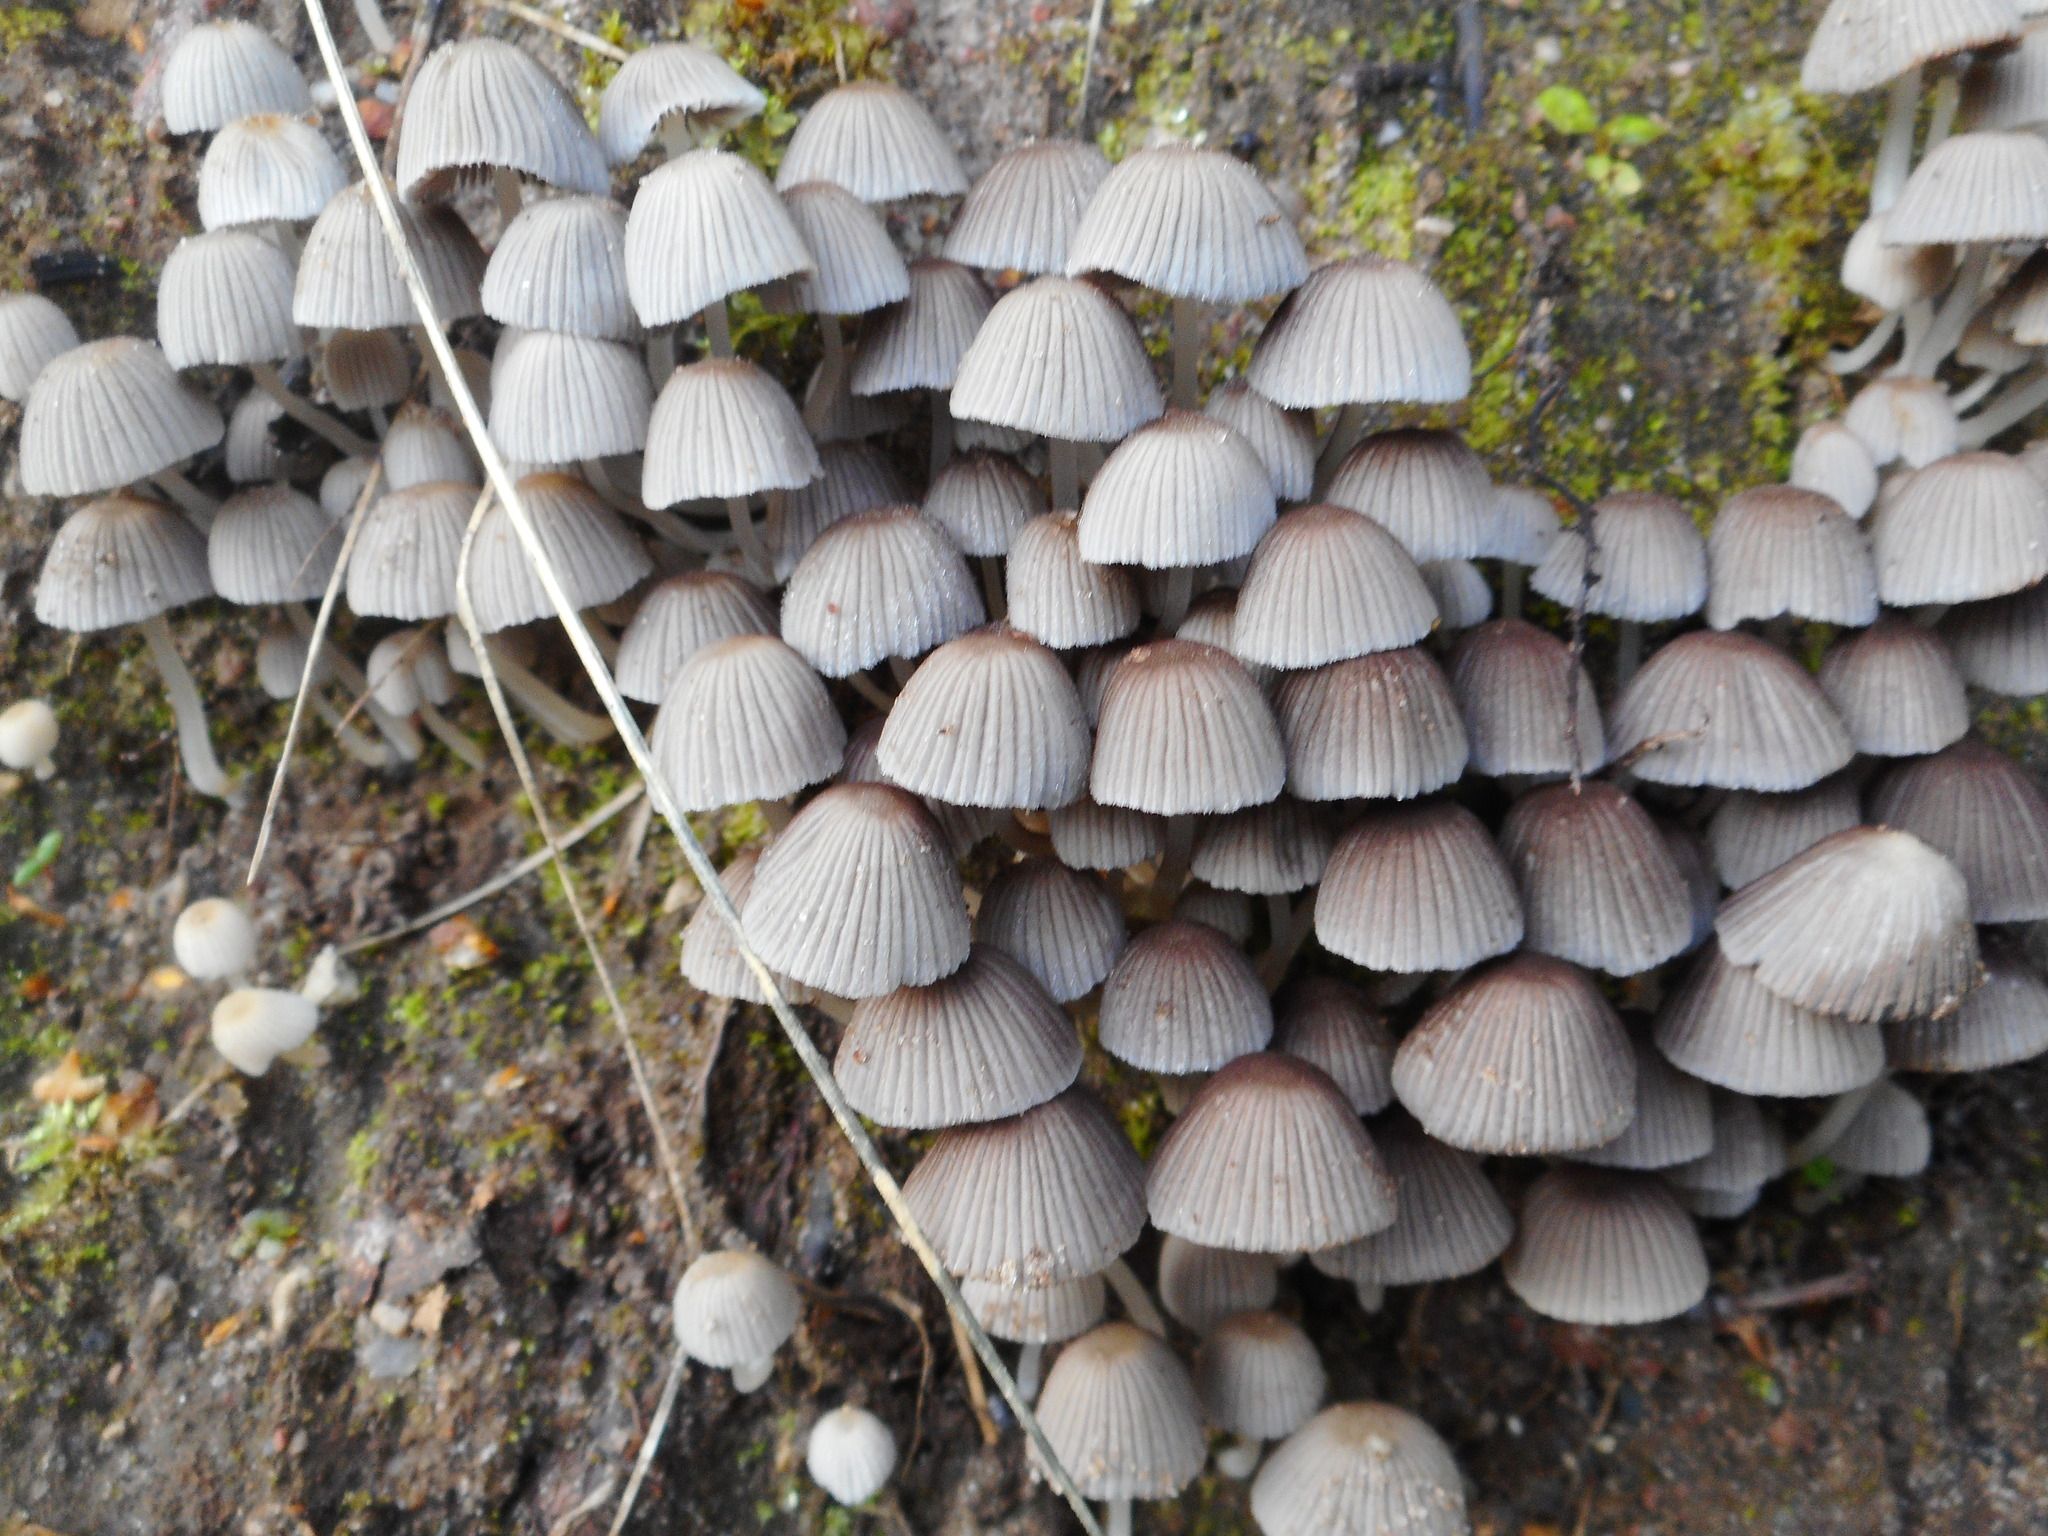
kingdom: Fungi
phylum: Basidiomycota
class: Agaricomycetes
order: Agaricales
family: Psathyrellaceae
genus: Coprinellus
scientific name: Coprinellus disseminatus
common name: Fairies' bonnets
